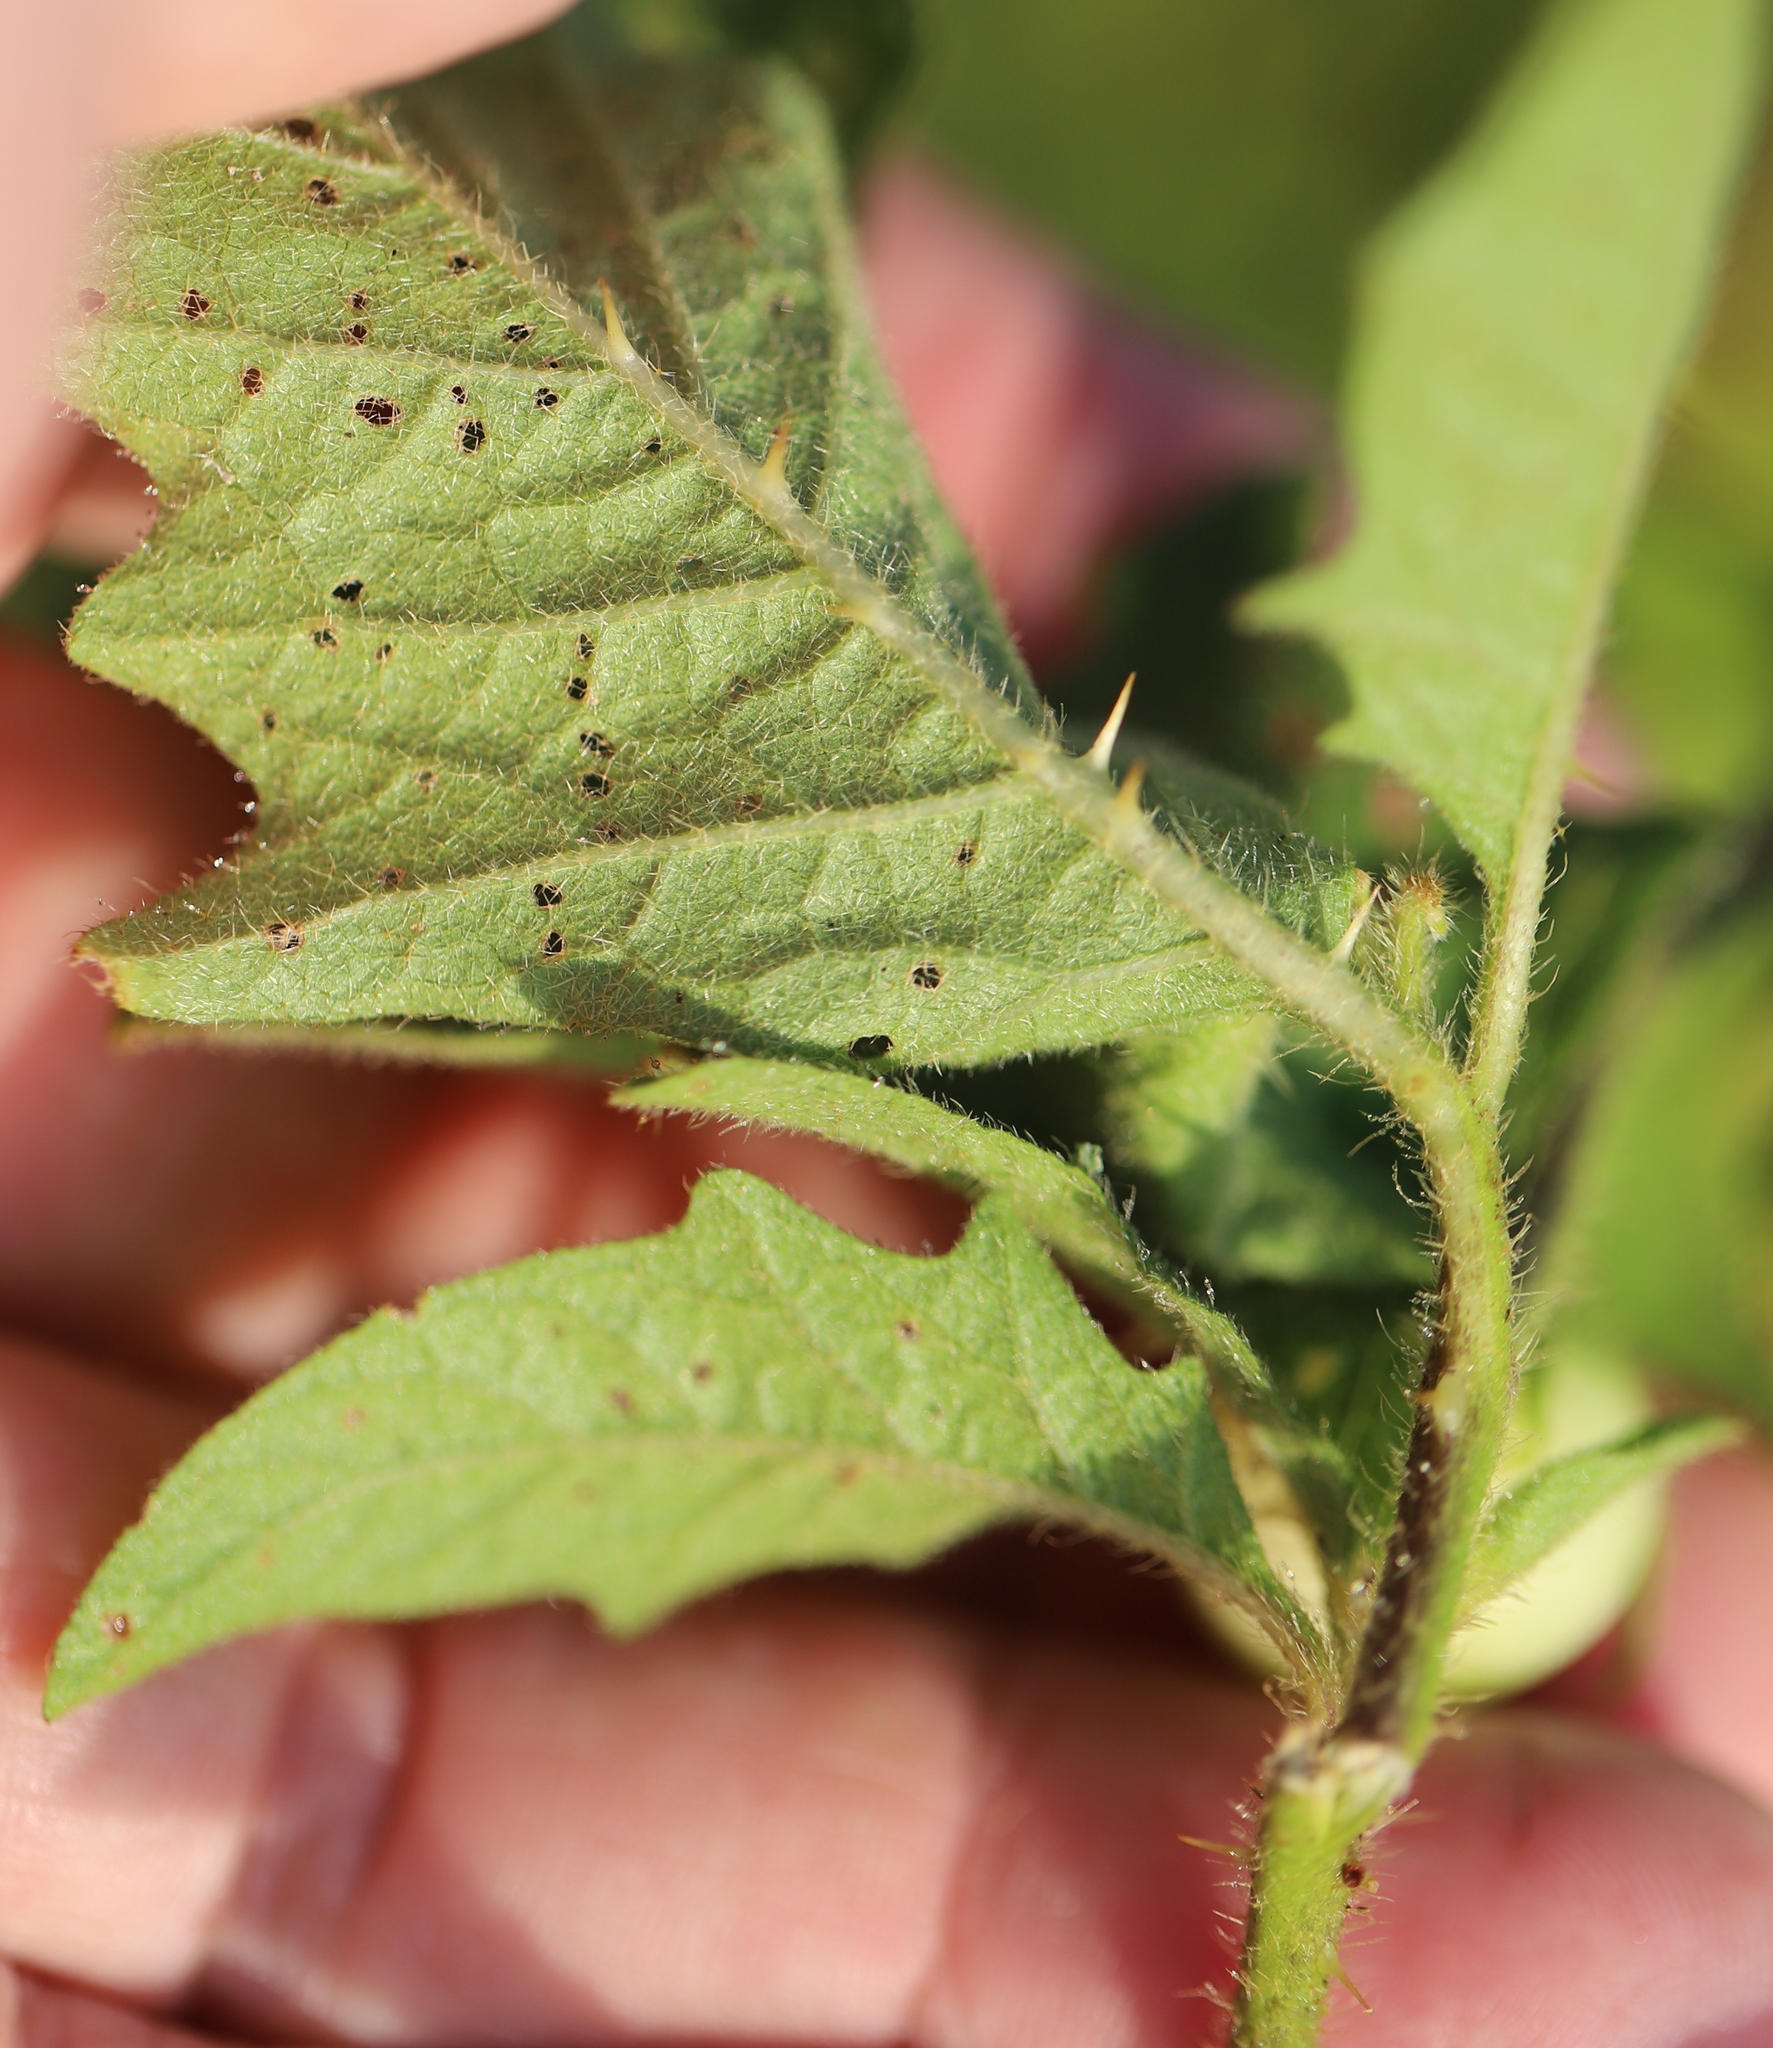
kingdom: Plantae
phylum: Tracheophyta
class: Magnoliopsida
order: Solanales
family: Solanaceae
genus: Solanum
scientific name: Solanum carolinense
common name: Horse-nettle
